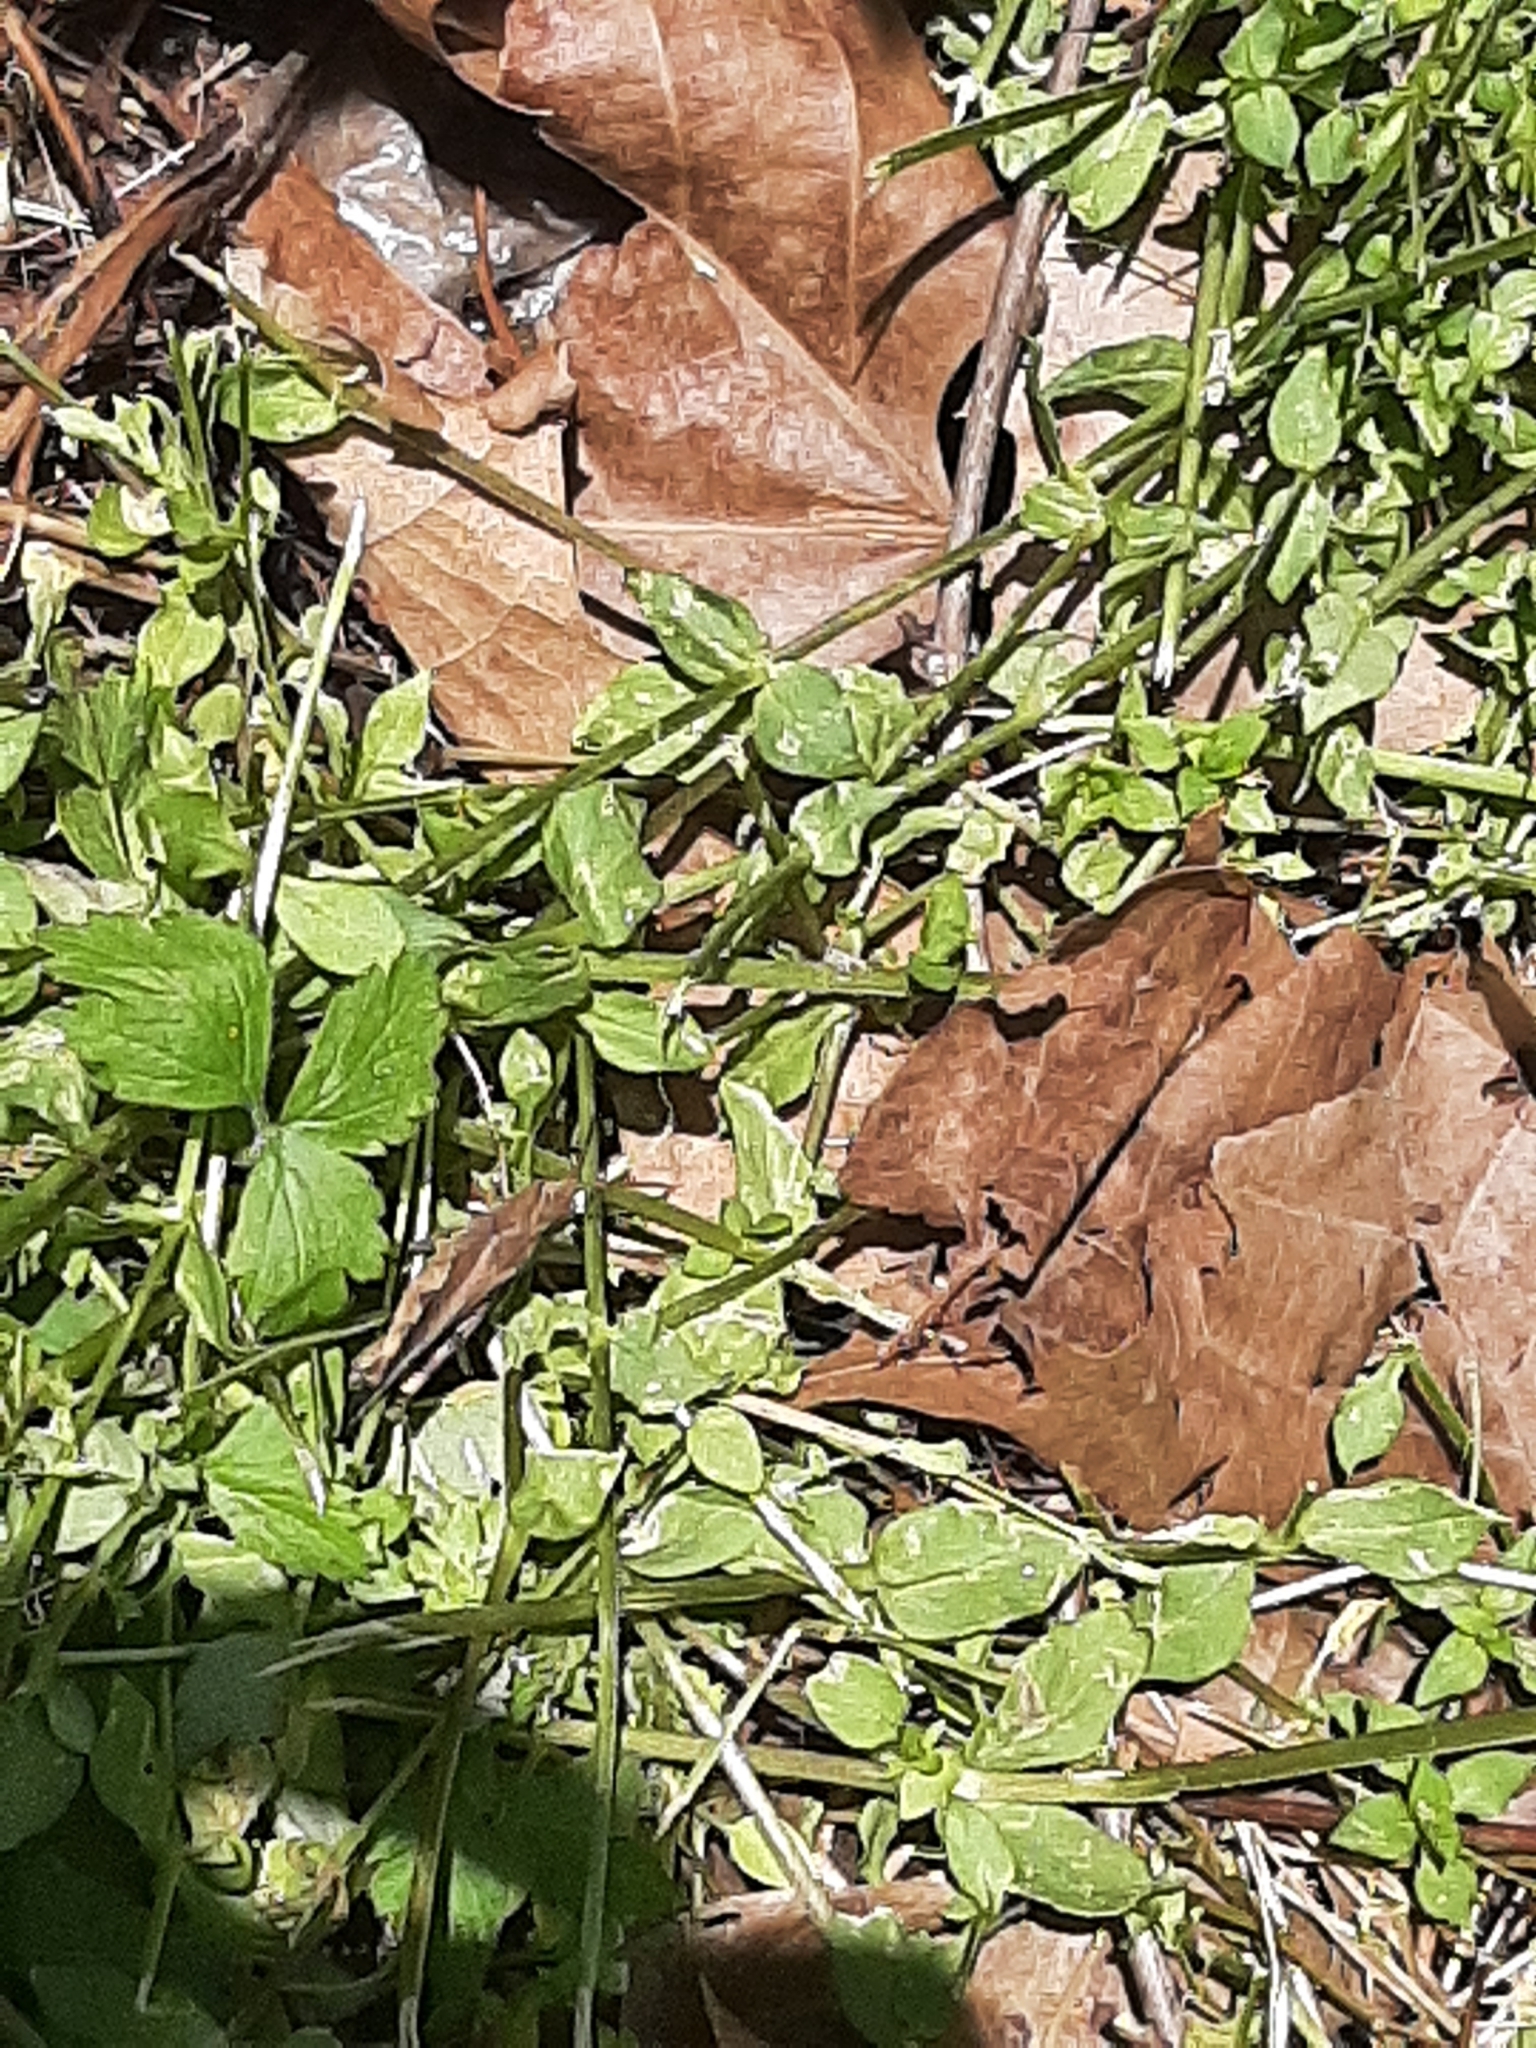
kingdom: Animalia
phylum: Arthropoda
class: Insecta
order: Orthoptera
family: Acrididae
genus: Chortophaga
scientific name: Chortophaga viridifasciata
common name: Green-striped grasshopper
